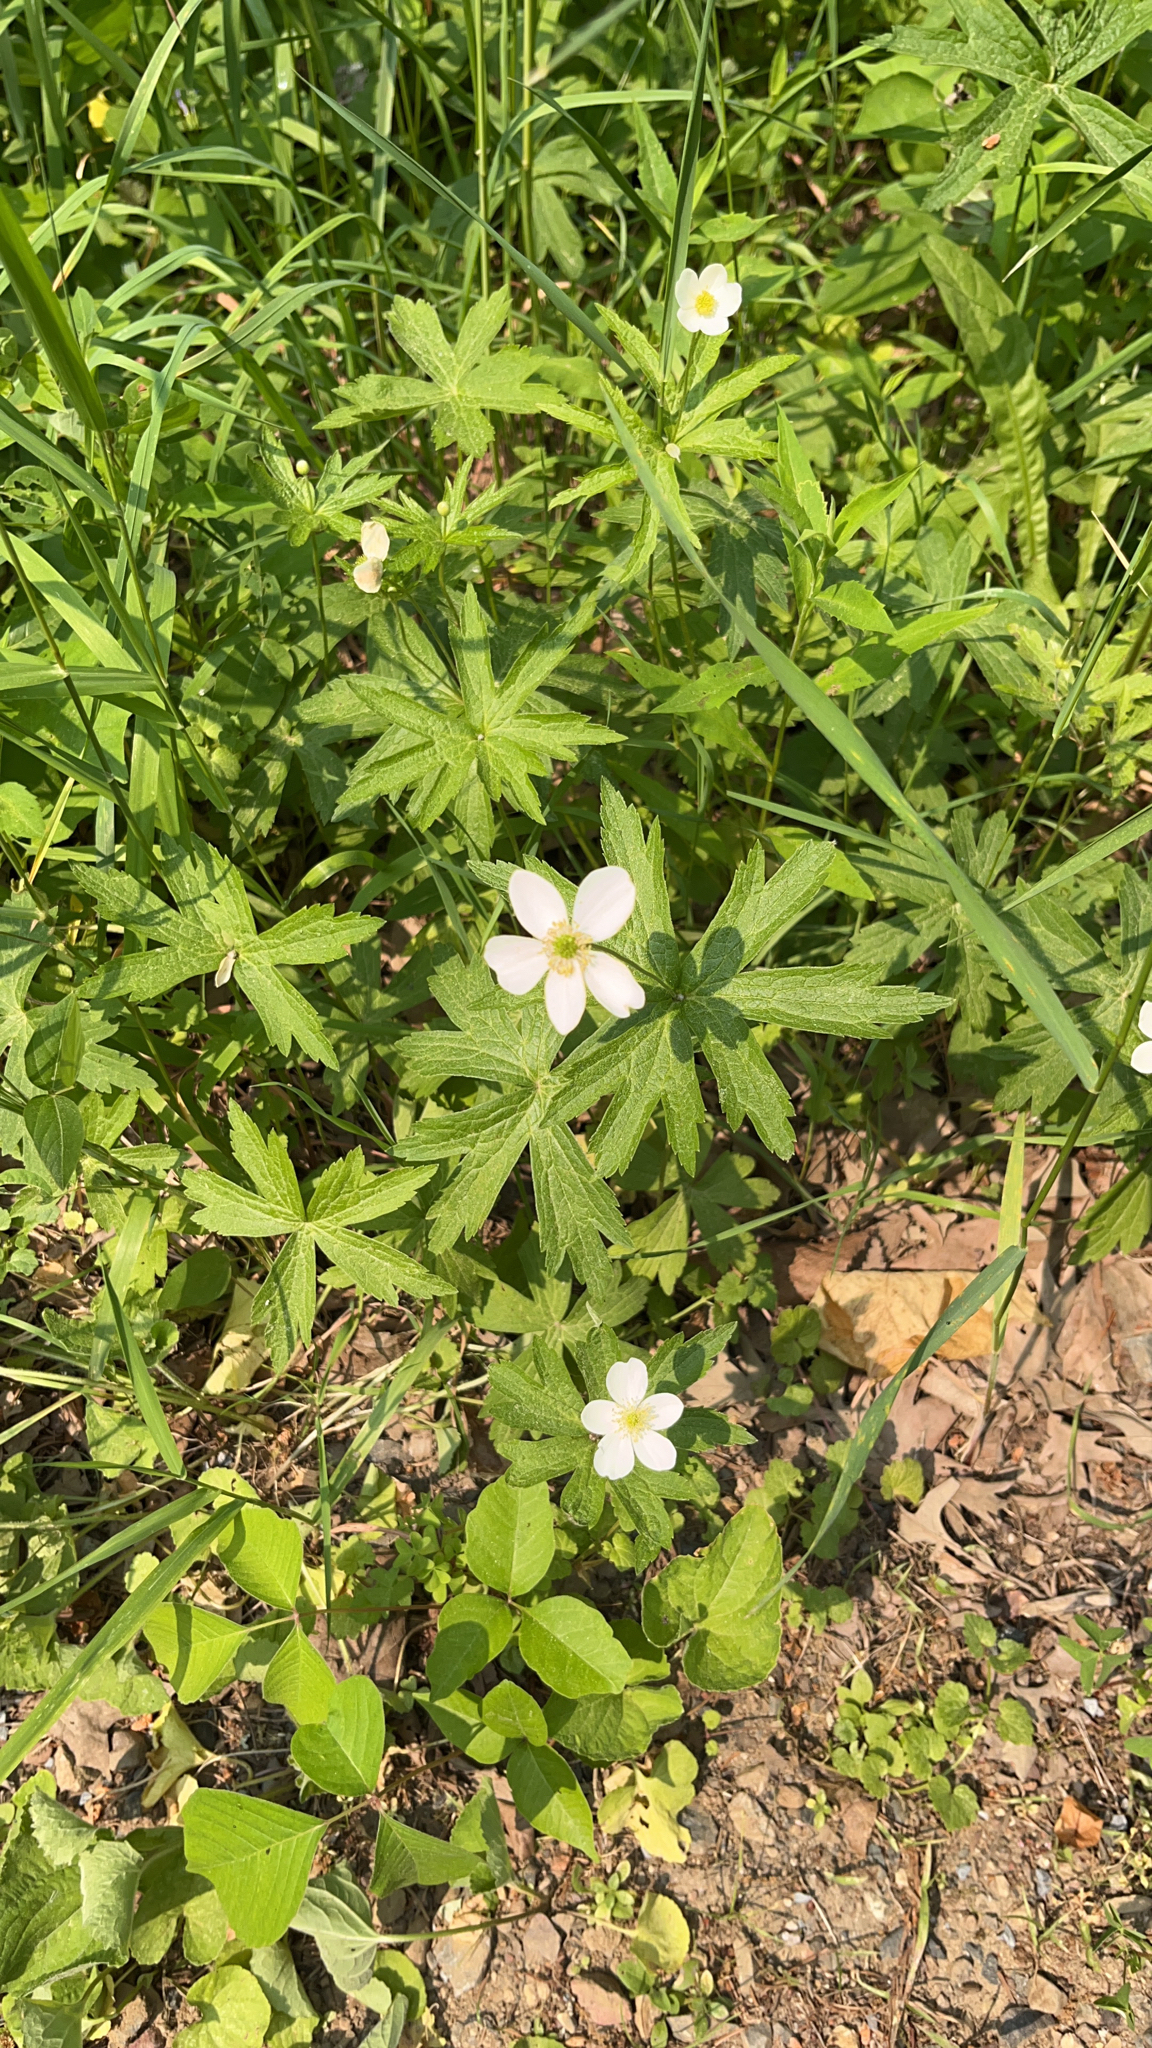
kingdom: Plantae
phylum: Tracheophyta
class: Magnoliopsida
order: Ranunculales
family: Ranunculaceae
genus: Anemonastrum
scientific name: Anemonastrum canadense
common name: Canada anemone
